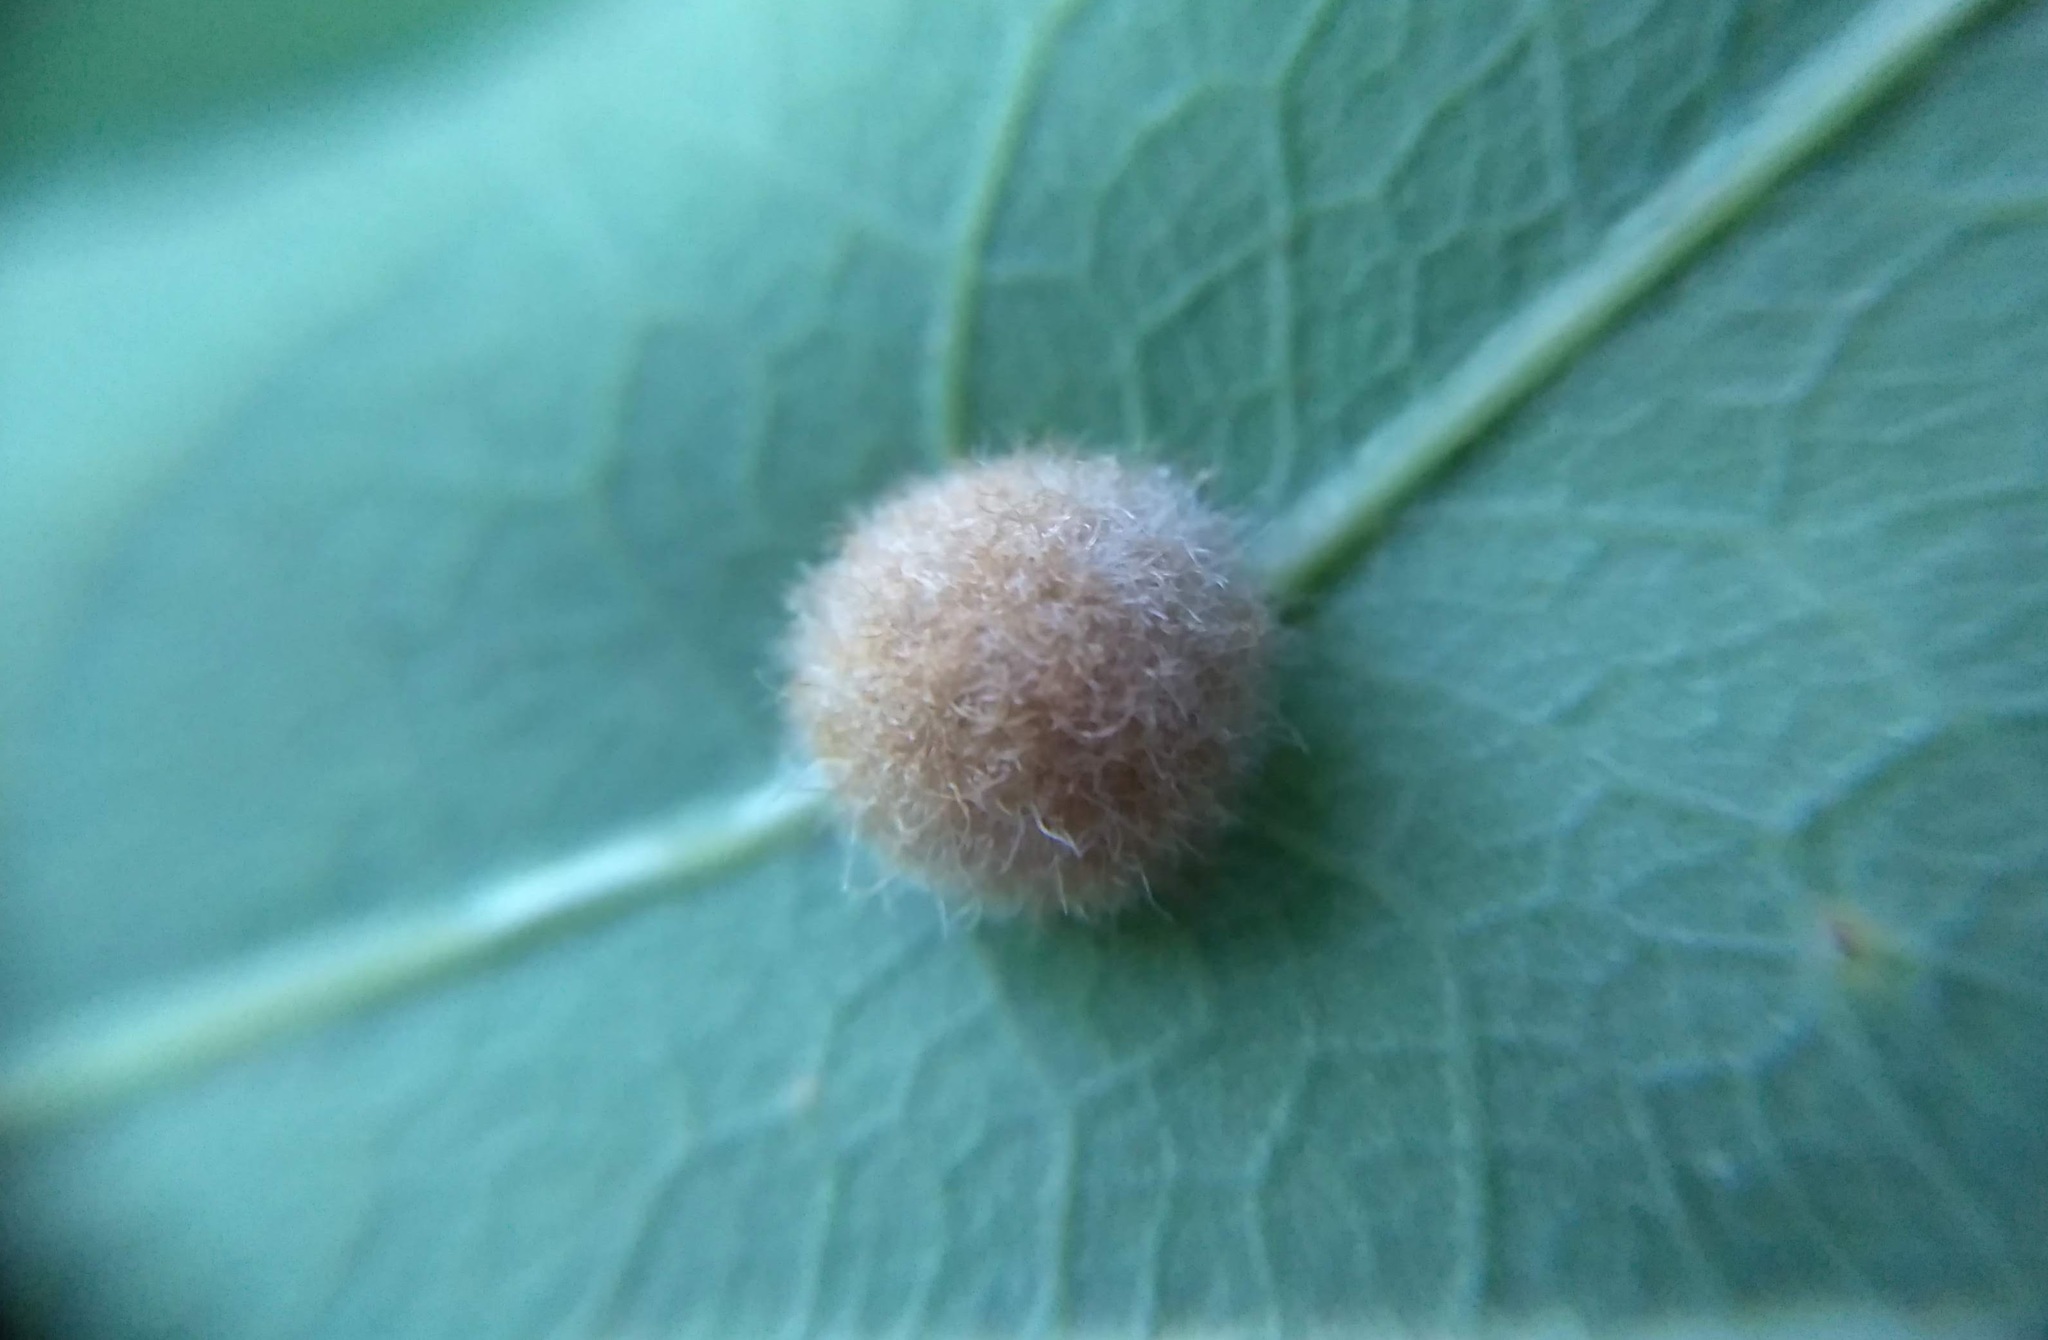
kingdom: Animalia
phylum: Arthropoda
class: Insecta
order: Hymenoptera
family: Cynipidae
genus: Philonix
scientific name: Philonix fulvicollis
